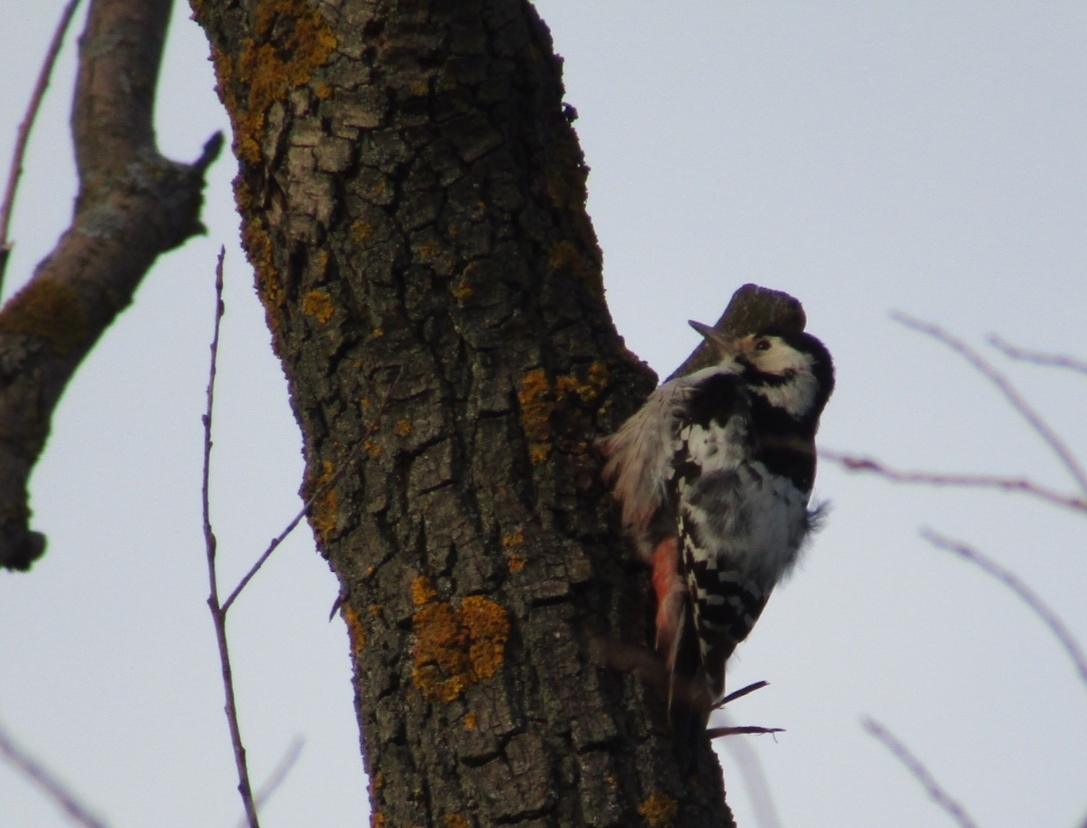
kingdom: Animalia
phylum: Chordata
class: Aves
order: Piciformes
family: Picidae
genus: Dendrocopos
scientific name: Dendrocopos leucotos
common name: White-backed woodpecker
